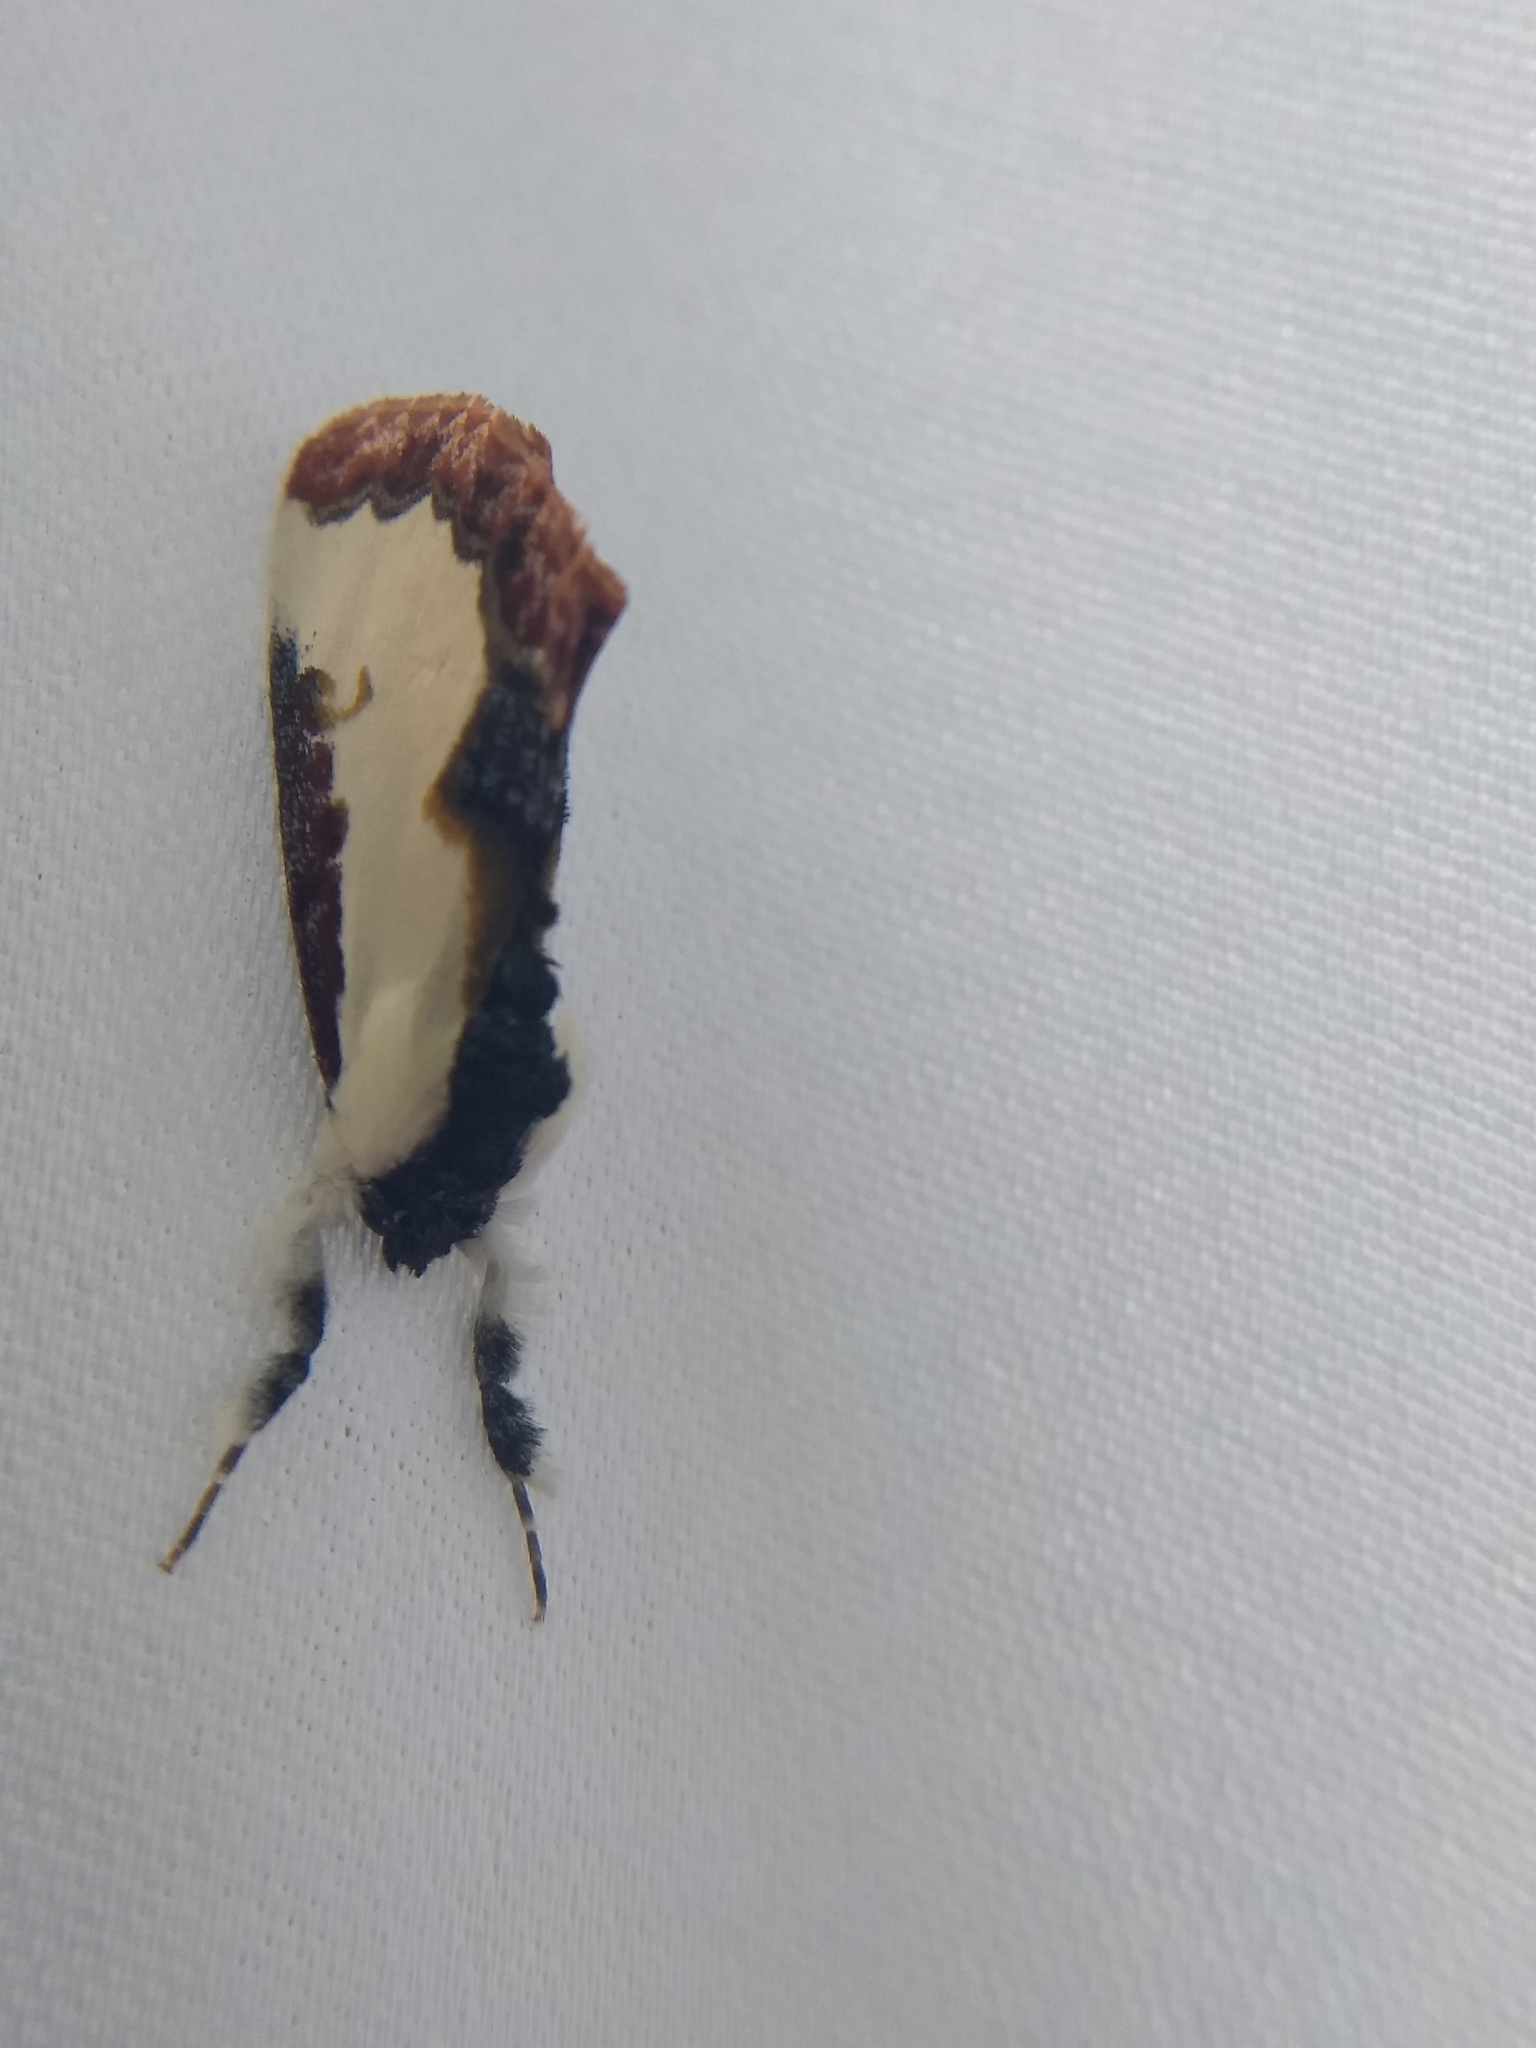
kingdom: Animalia
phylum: Arthropoda
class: Insecta
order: Lepidoptera
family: Noctuidae
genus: Eudryas
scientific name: Eudryas unio
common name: Pearly wood-nymph
